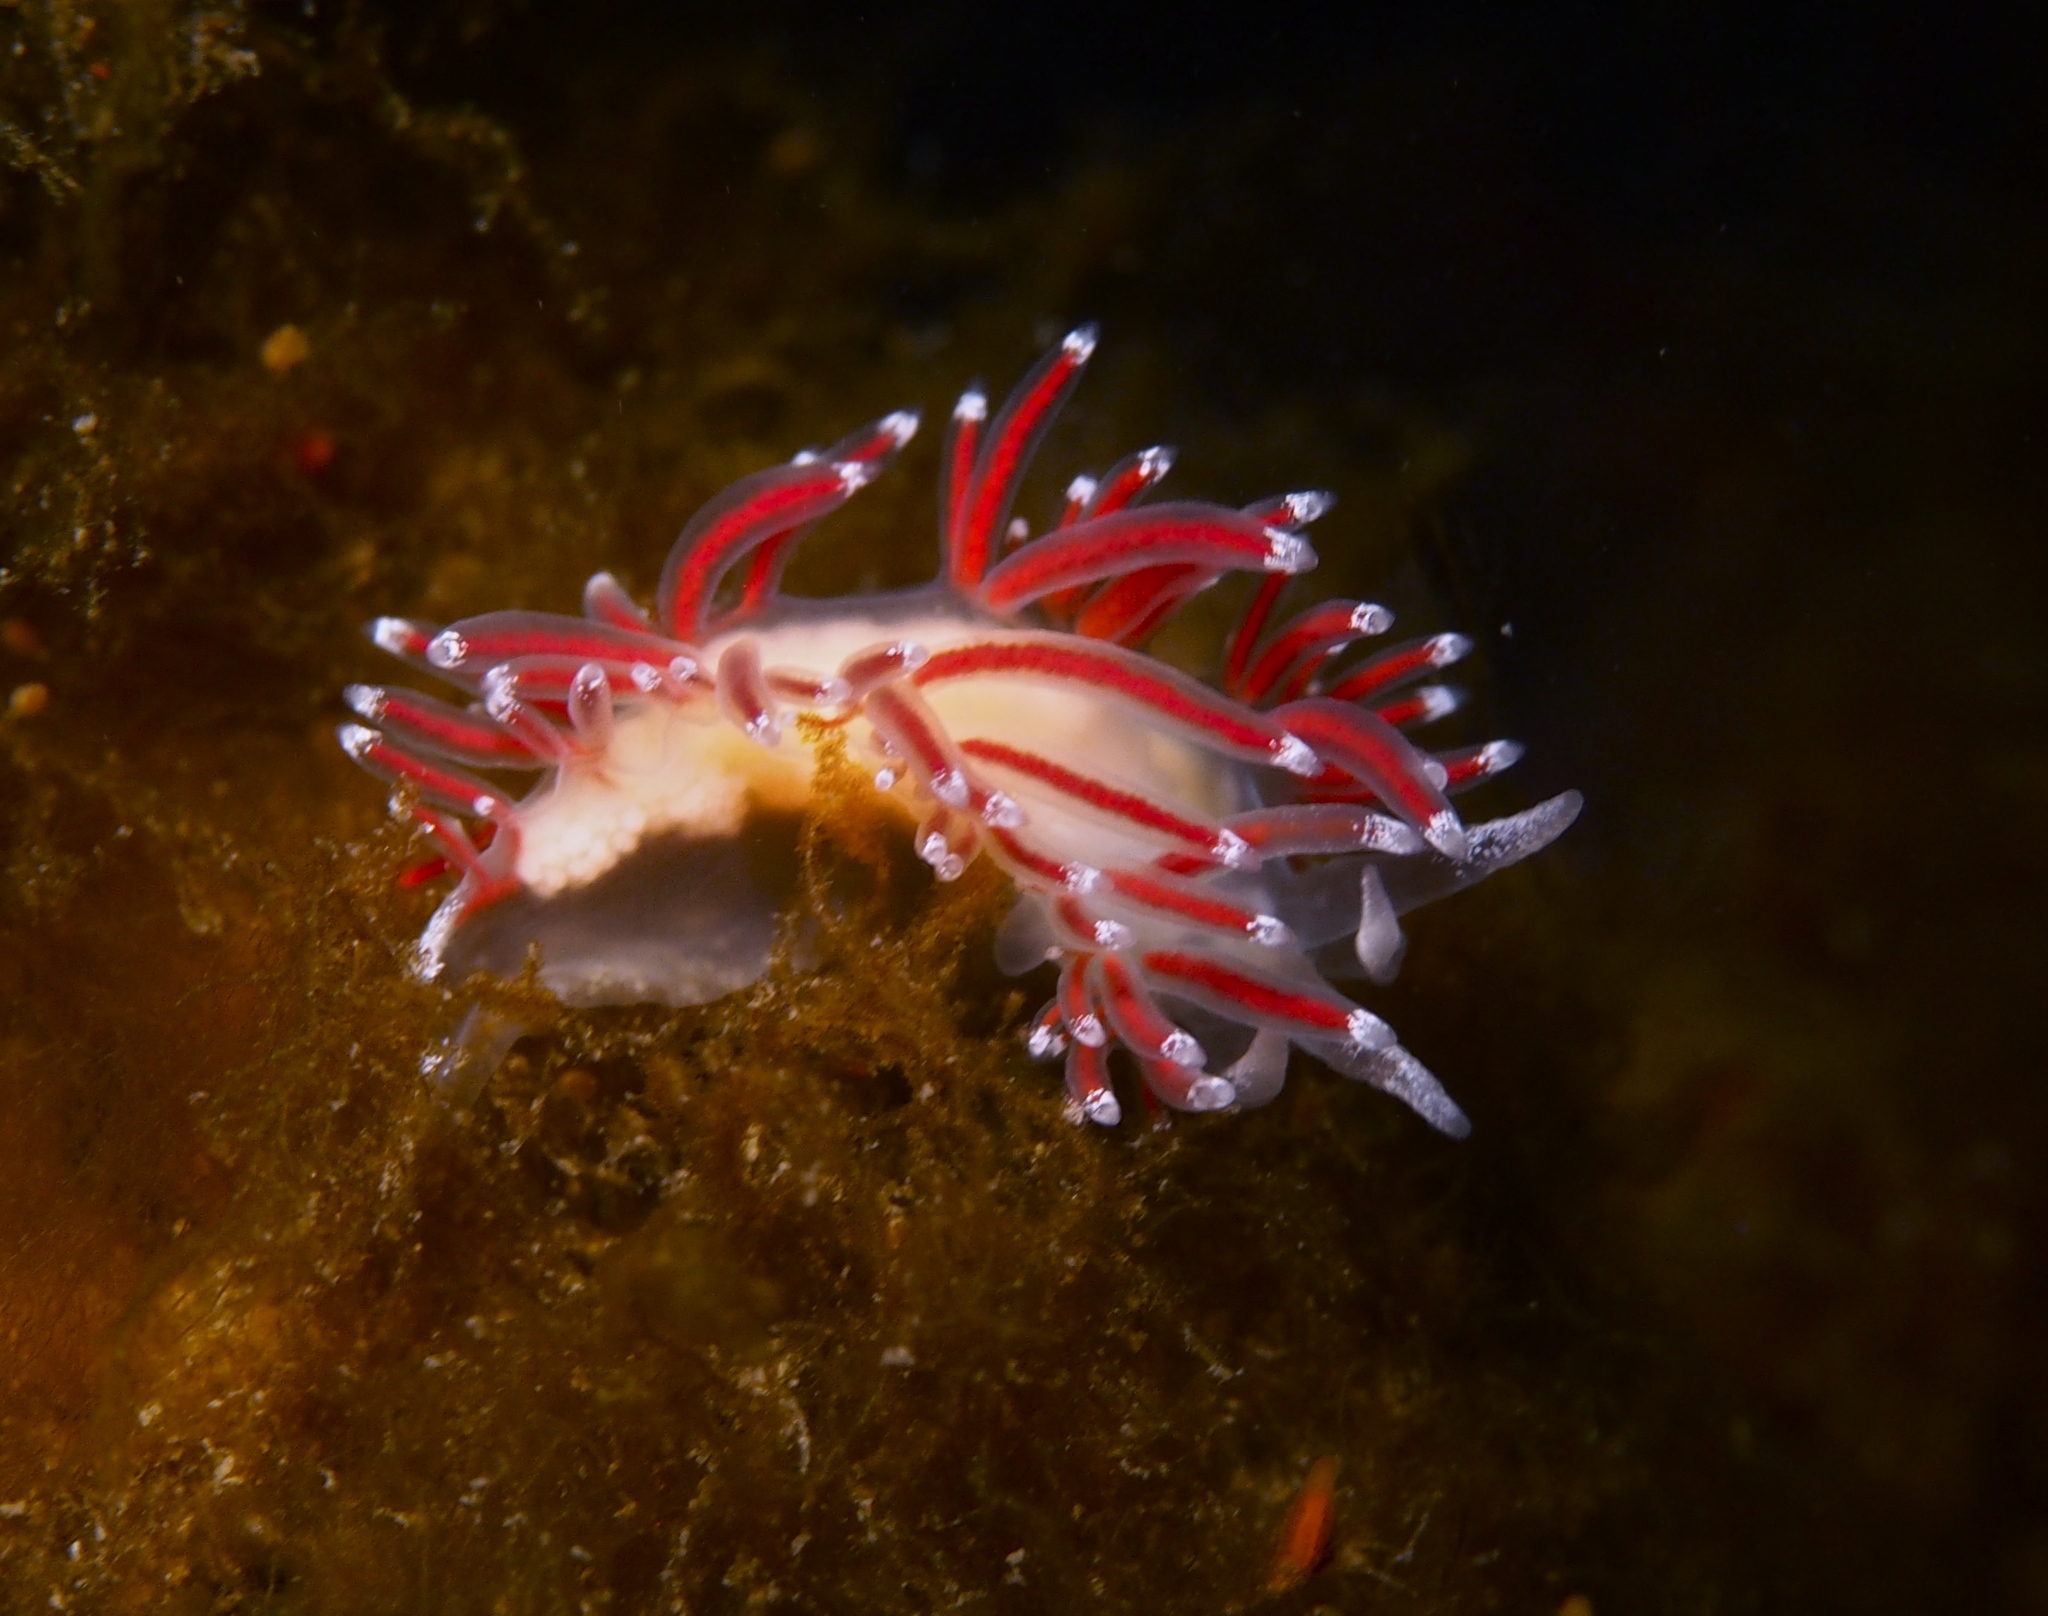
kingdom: Animalia
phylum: Mollusca
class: Gastropoda
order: Nudibranchia
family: Coryphellidae
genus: Coryphella
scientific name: Coryphella gracilis
